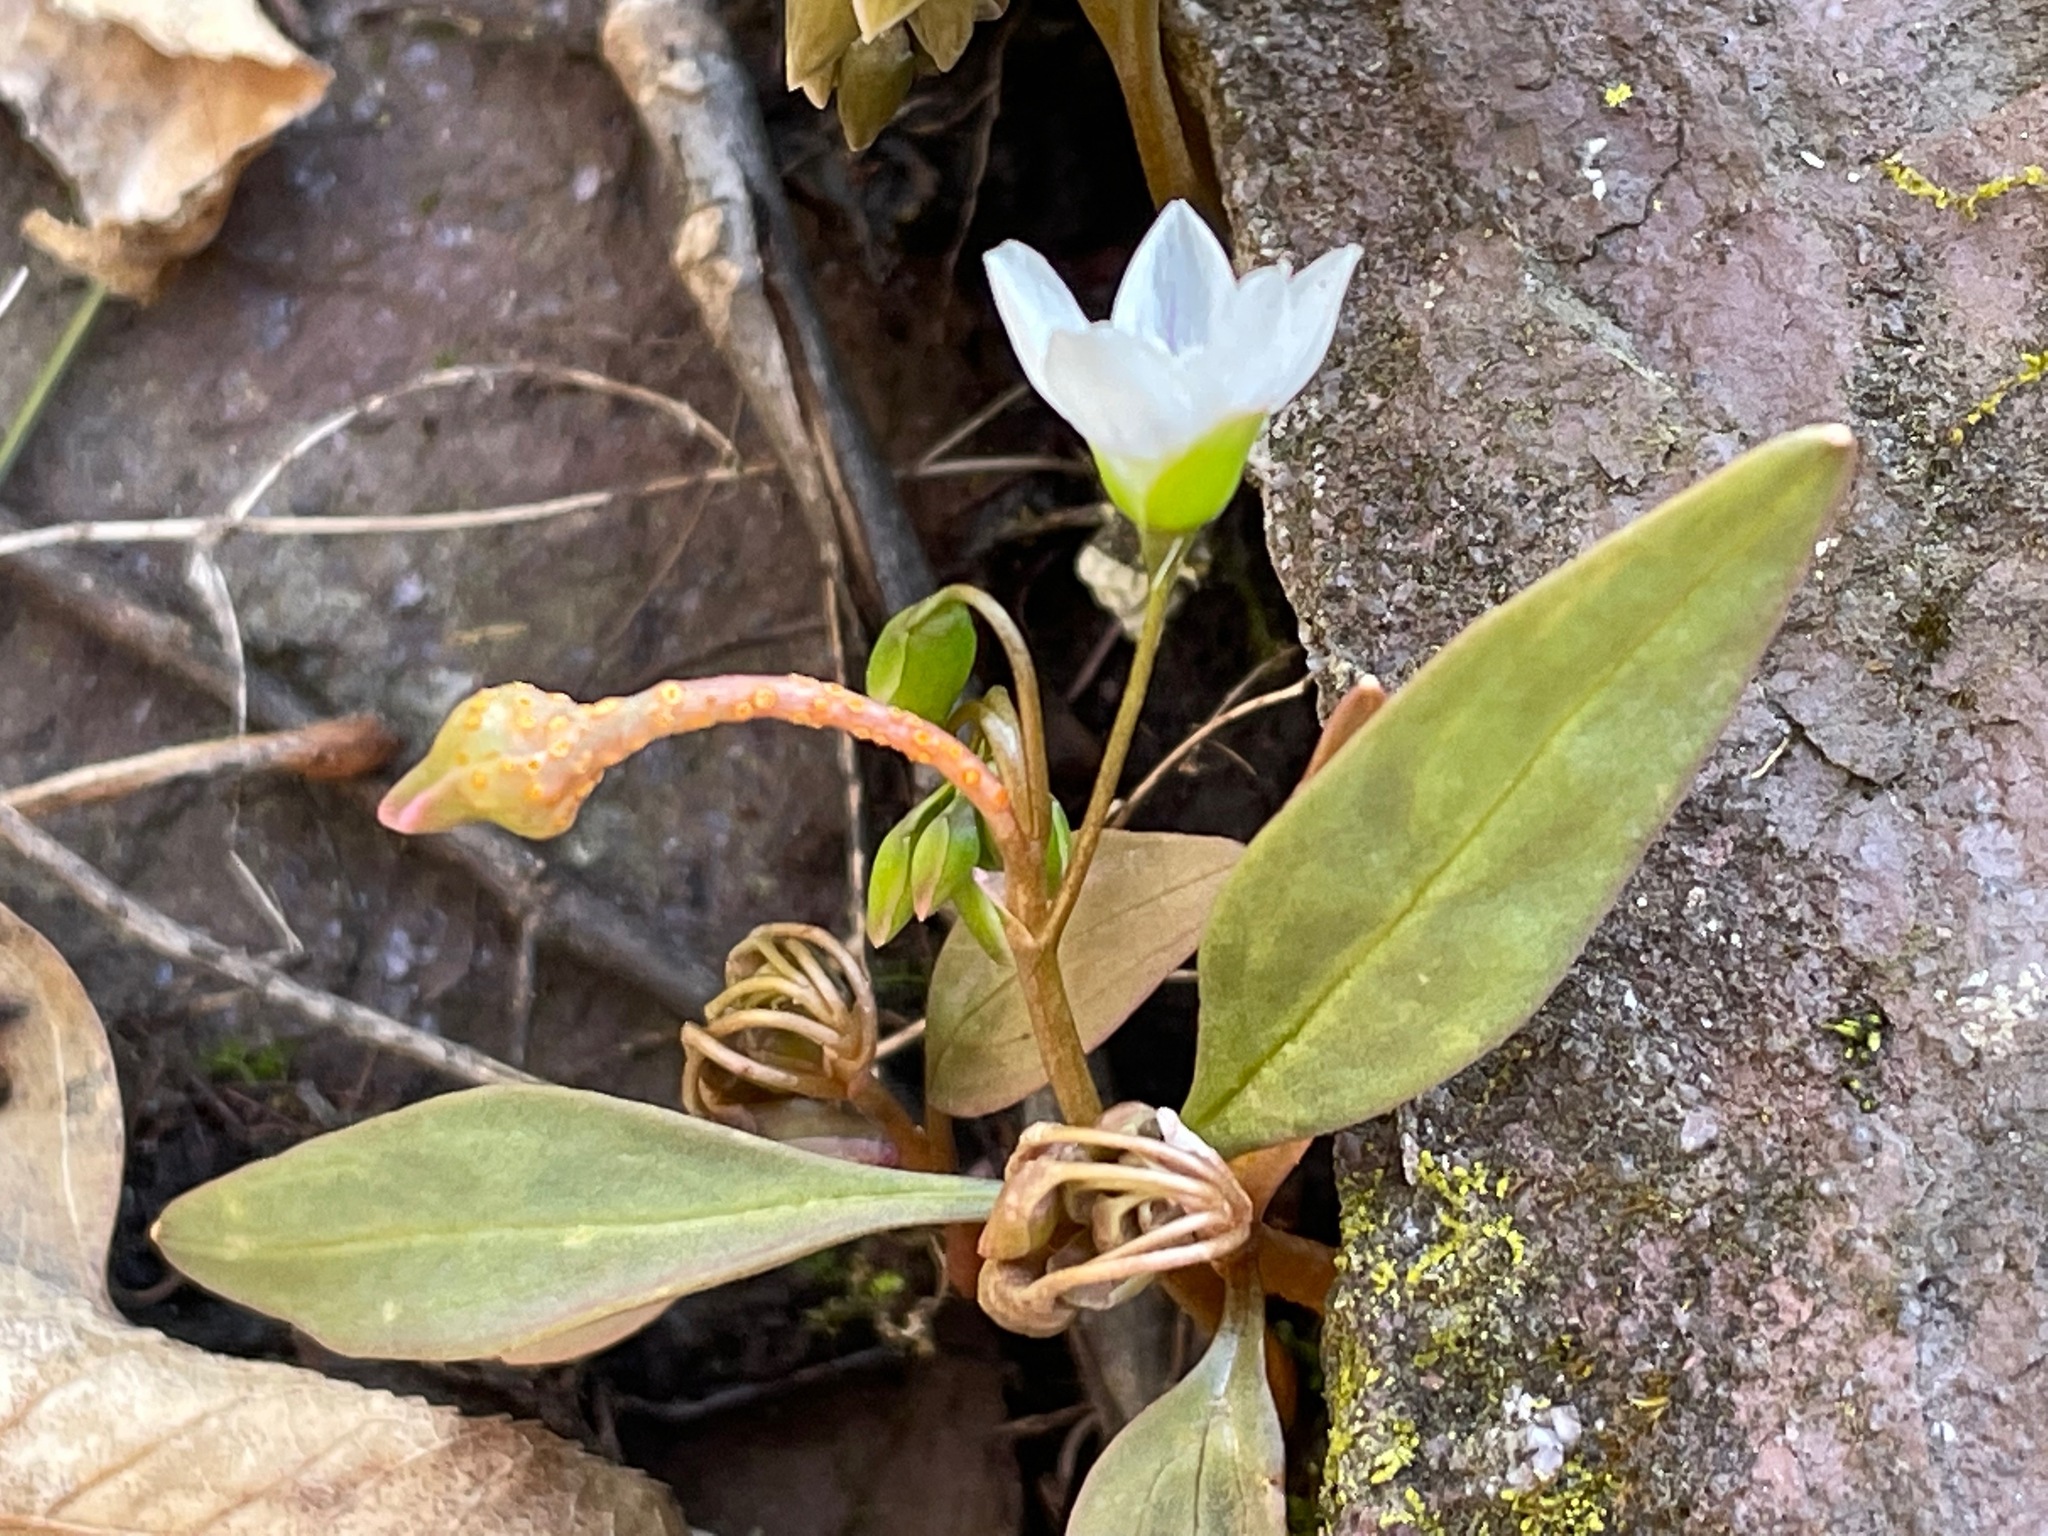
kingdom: Plantae
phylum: Tracheophyta
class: Magnoliopsida
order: Caryophyllales
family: Montiaceae
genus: Claytonia
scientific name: Claytonia caroliniana
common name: Carolina spring beauty
